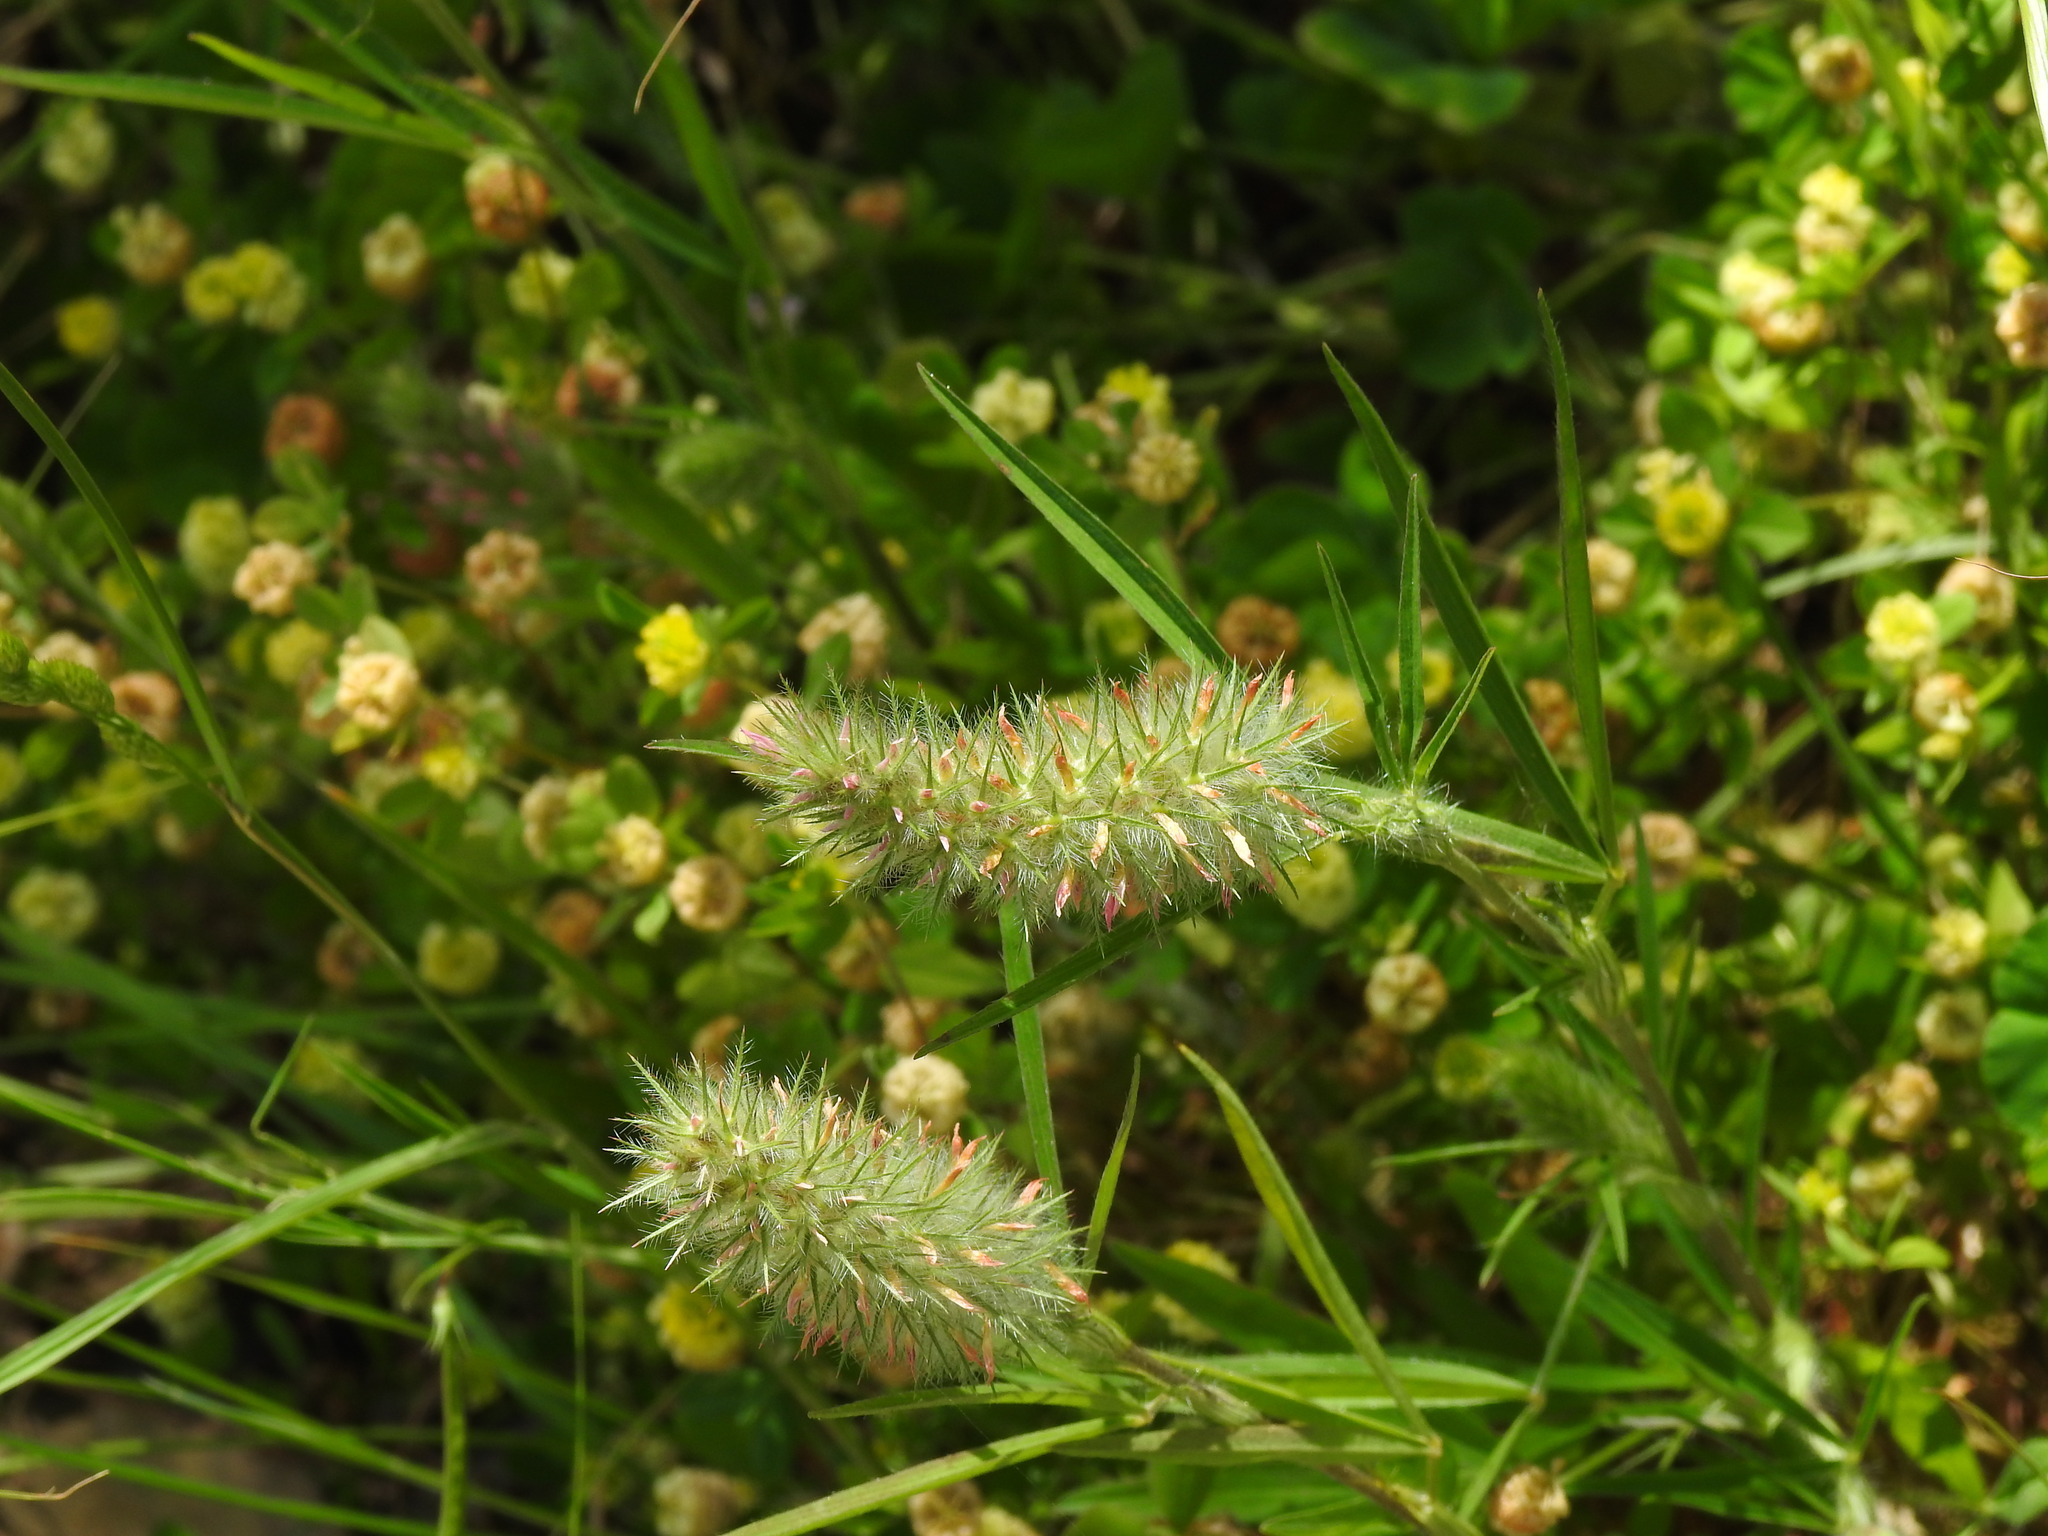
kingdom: Plantae
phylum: Tracheophyta
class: Magnoliopsida
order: Fabales
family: Fabaceae
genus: Trifolium
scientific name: Trifolium angustifolium
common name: Narrow clover
